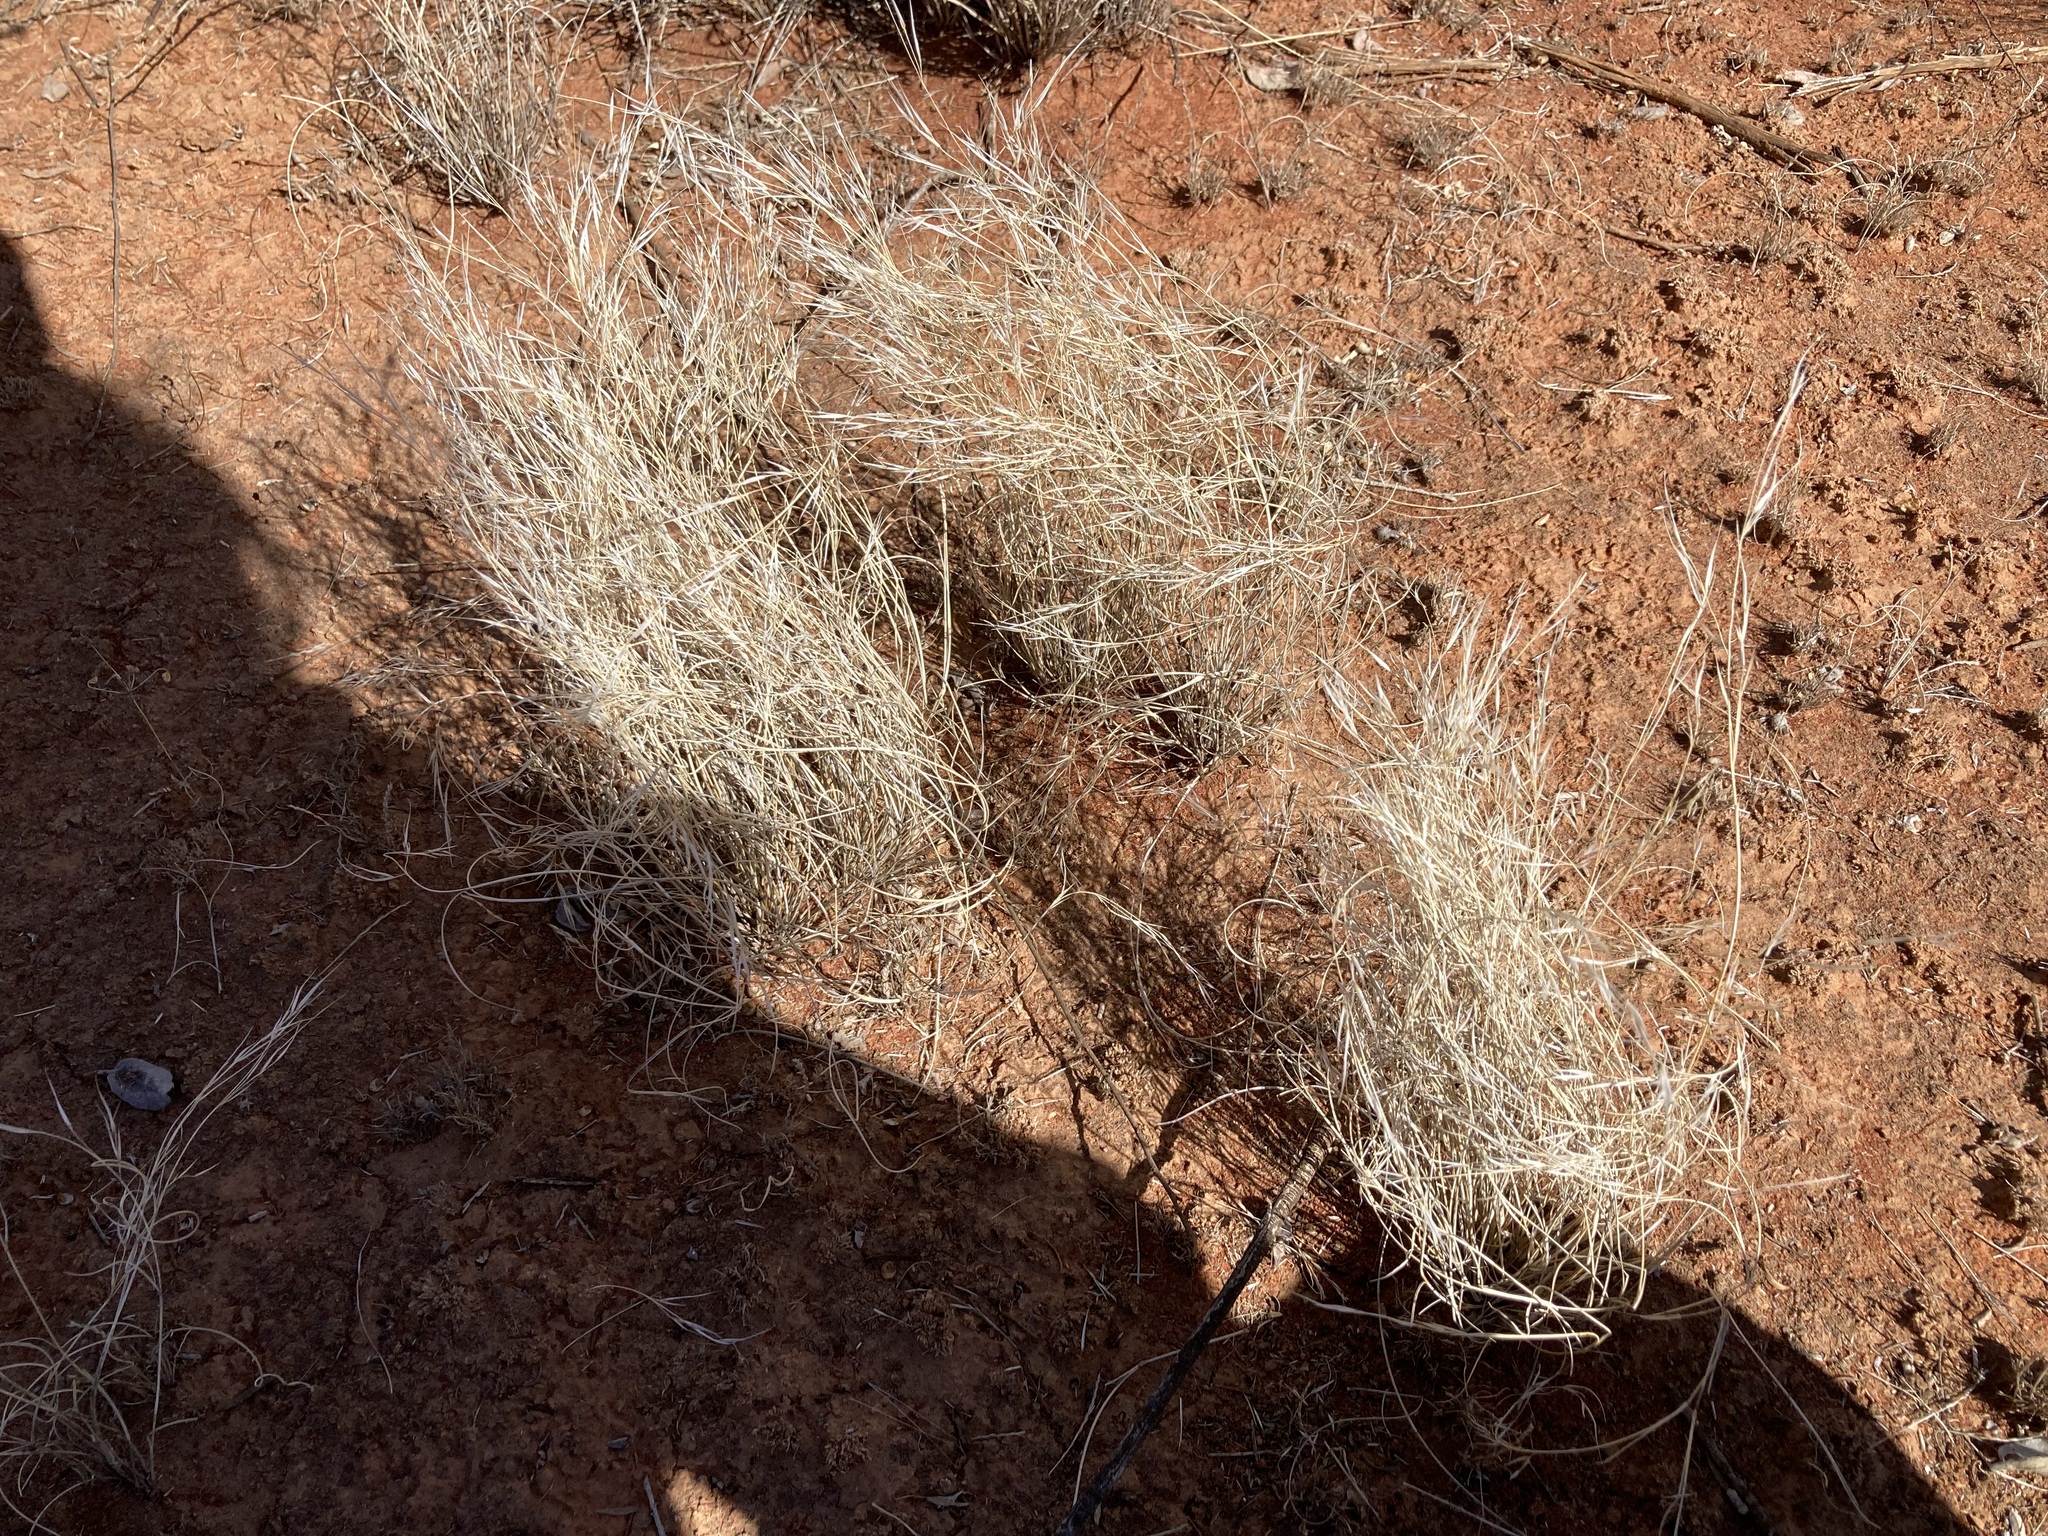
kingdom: Plantae
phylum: Tracheophyta
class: Liliopsida
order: Poales
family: Poaceae
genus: Aristida
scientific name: Aristida contorta
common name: Bunch kerosene grass
